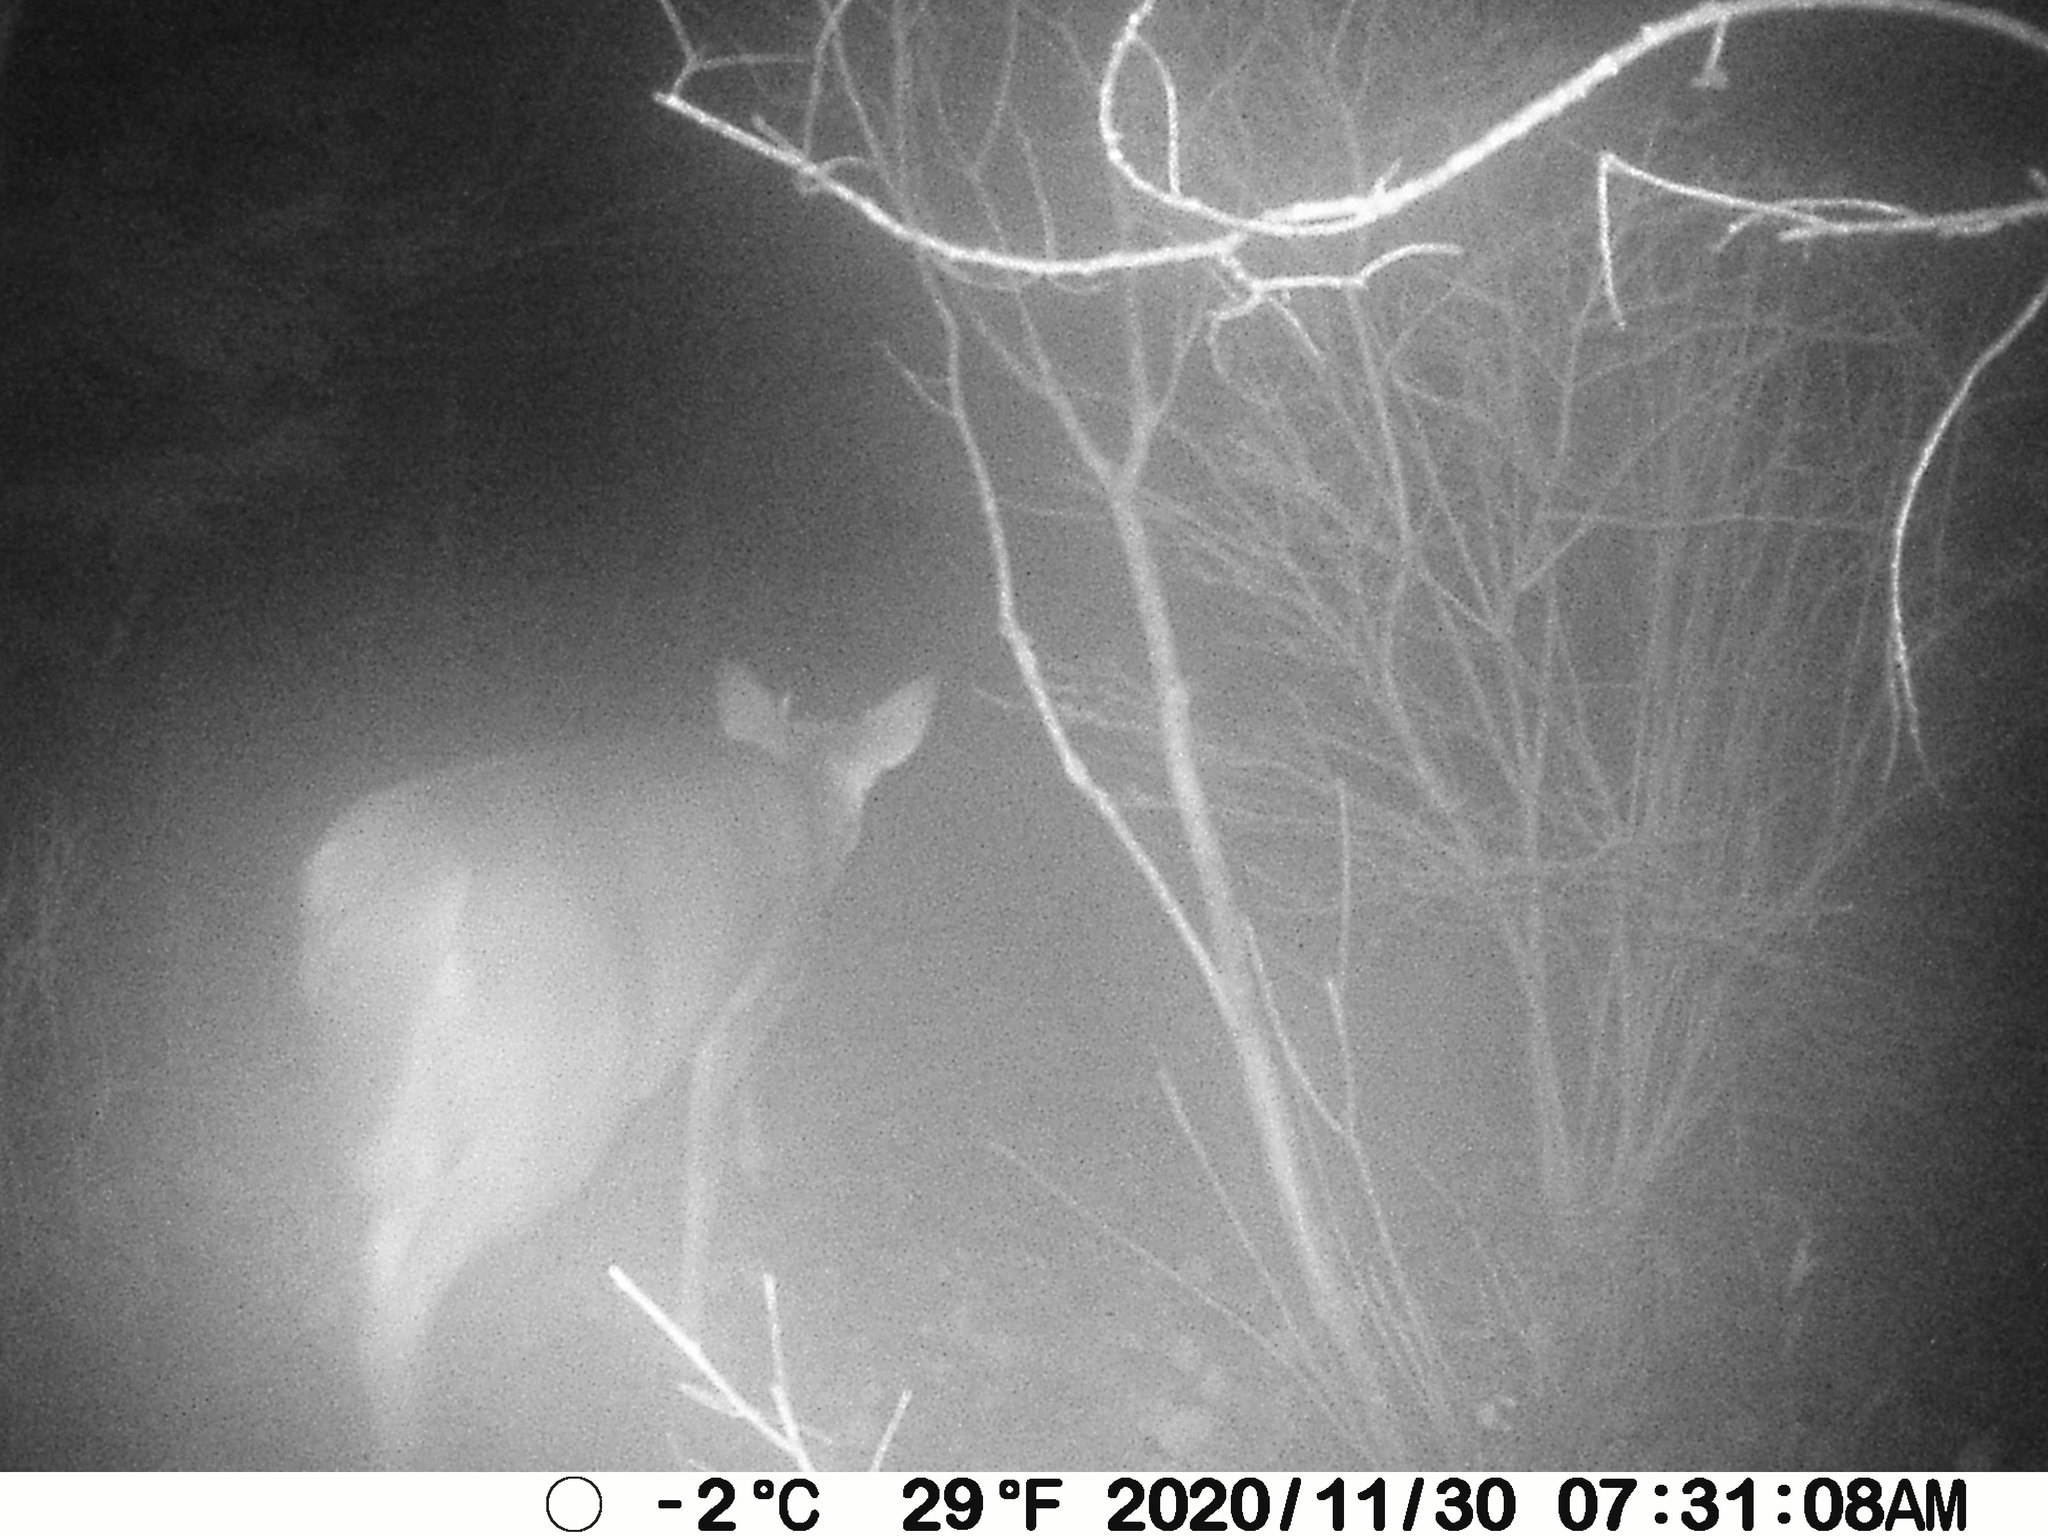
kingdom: Animalia
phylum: Chordata
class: Mammalia
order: Artiodactyla
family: Cervidae
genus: Odocoileus
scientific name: Odocoileus virginianus
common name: White-tailed deer
